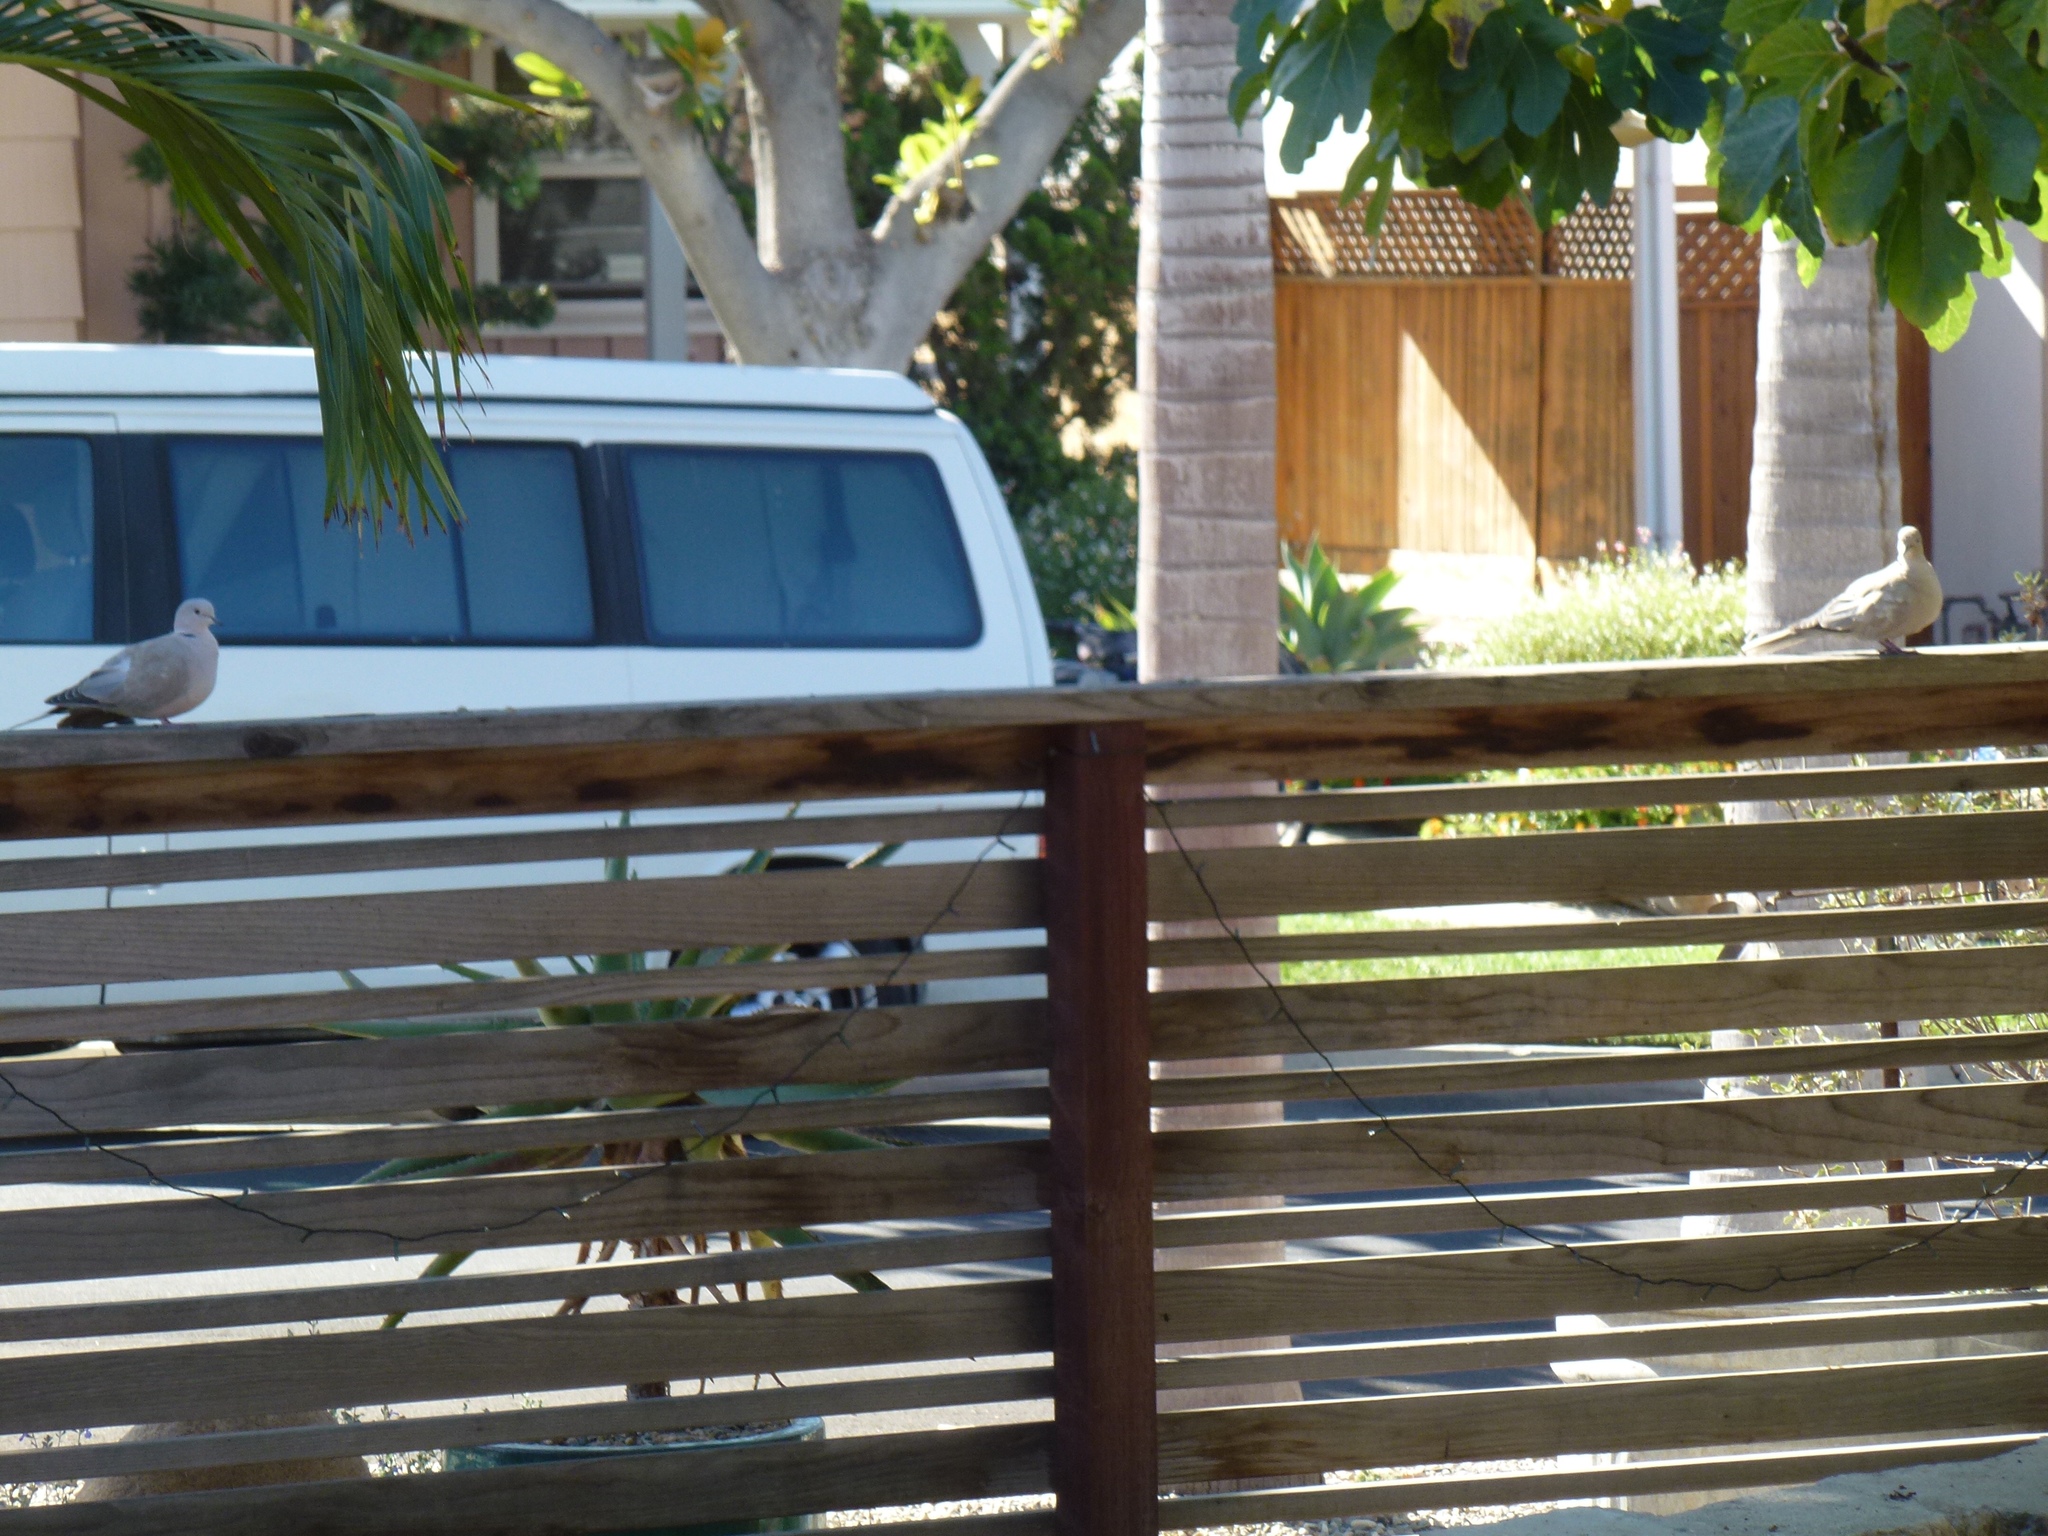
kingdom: Animalia
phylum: Chordata
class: Aves
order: Columbiformes
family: Columbidae
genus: Streptopelia
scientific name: Streptopelia decaocto
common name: Eurasian collared dove
